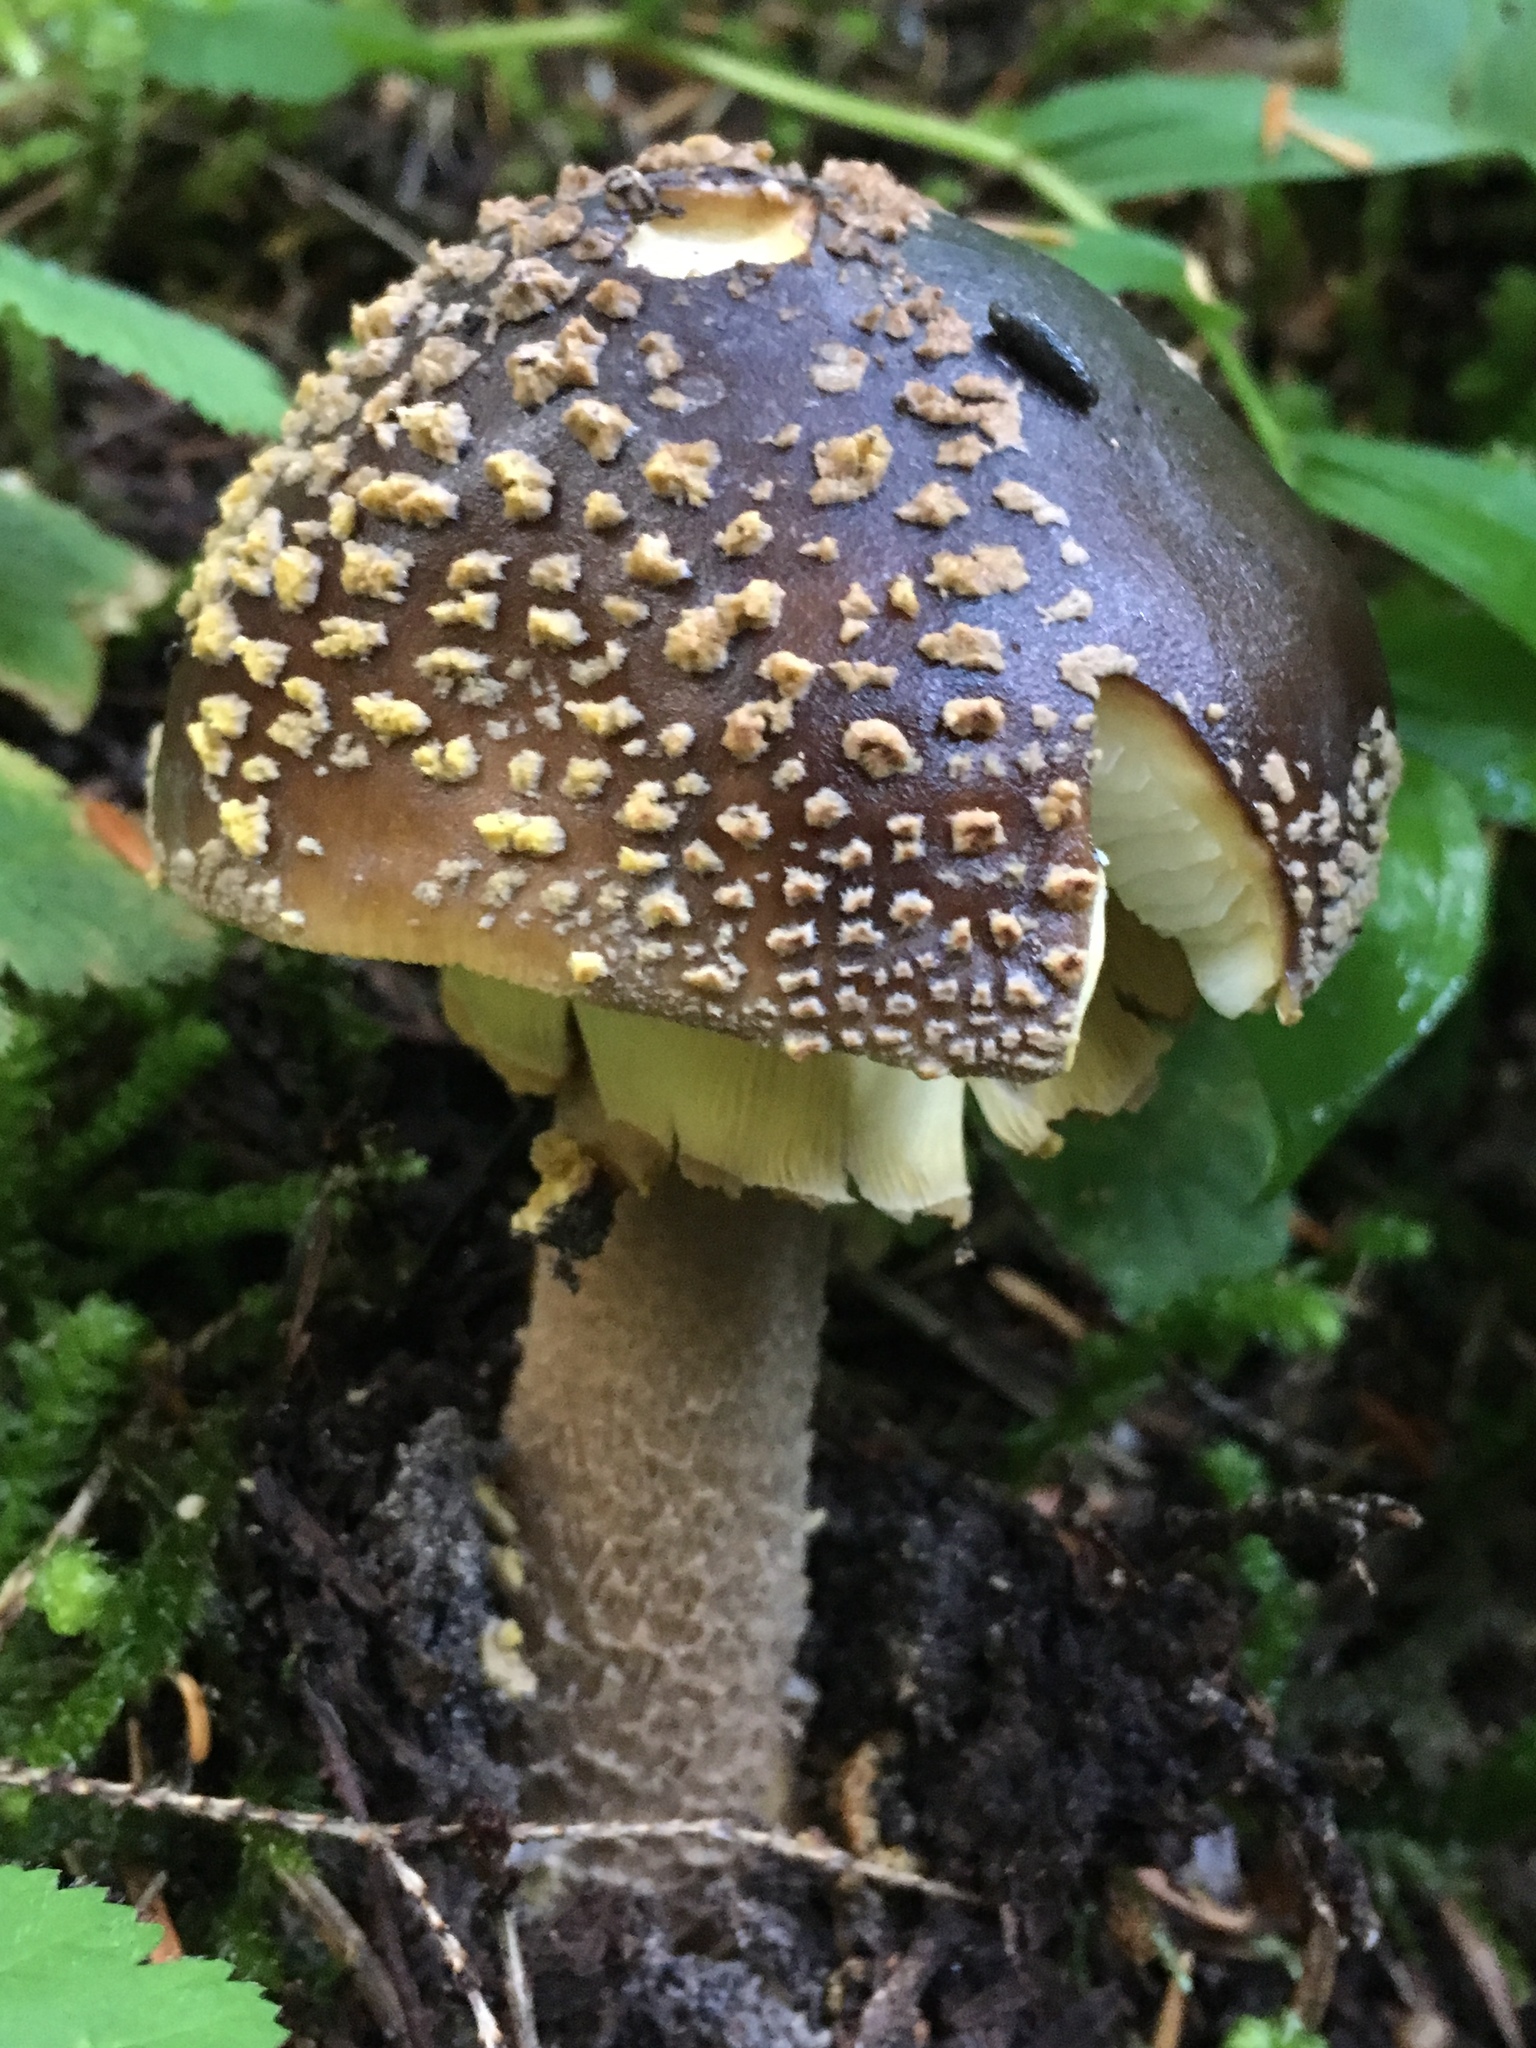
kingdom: Fungi
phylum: Basidiomycota
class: Agaricomycetes
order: Agaricales
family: Amanitaceae
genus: Amanita
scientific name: Amanita augusta
